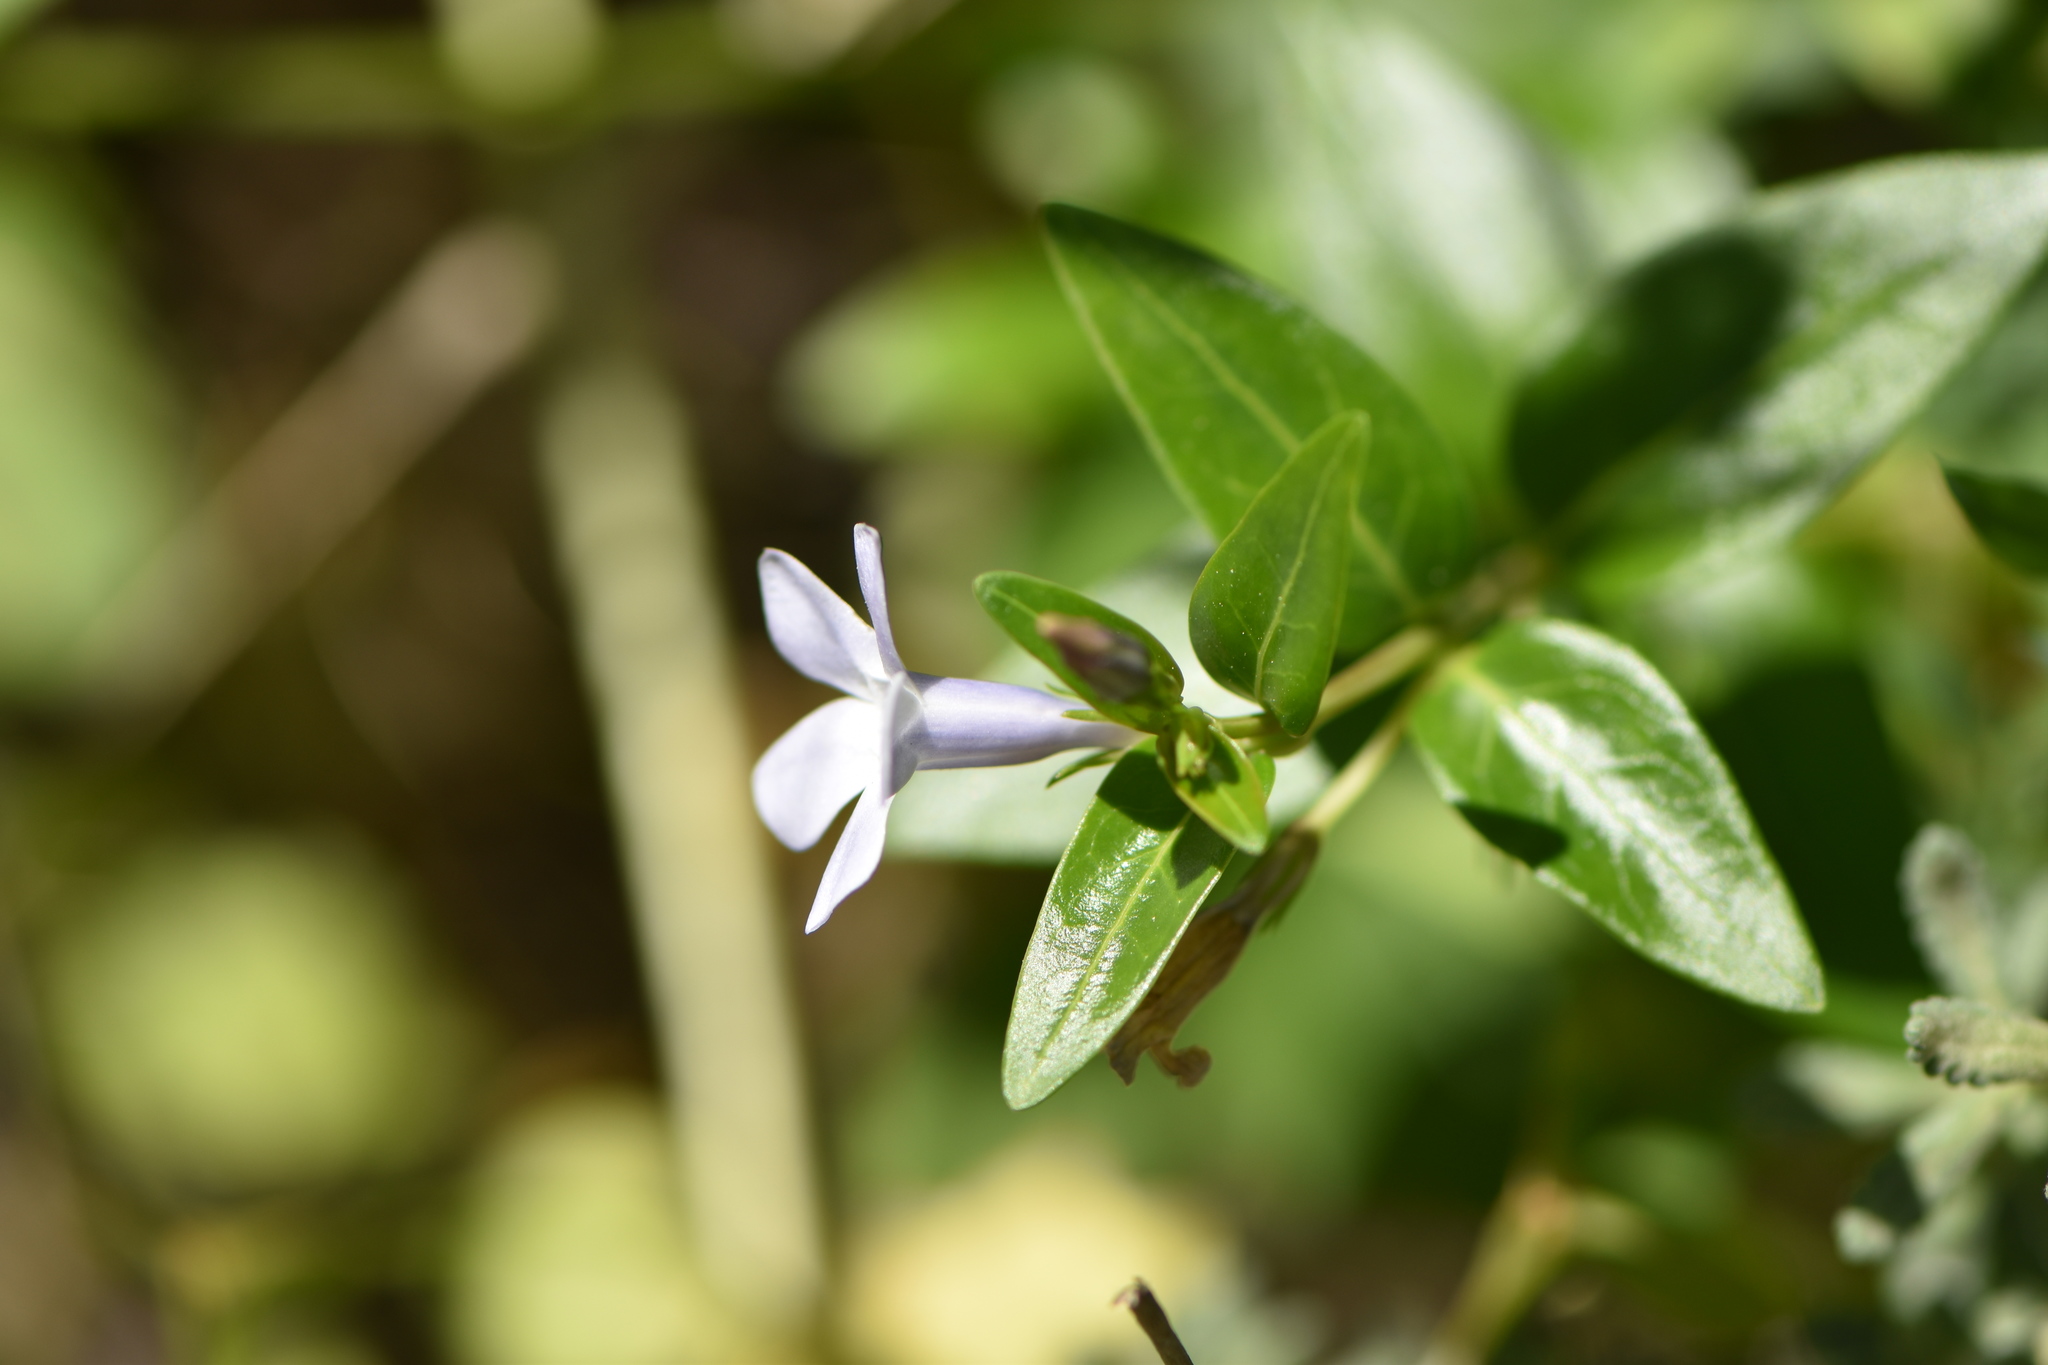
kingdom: Plantae
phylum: Tracheophyta
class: Magnoliopsida
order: Gentianales
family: Apocynaceae
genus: Vinca
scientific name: Vinca difformis
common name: Intermediate periwinkle
